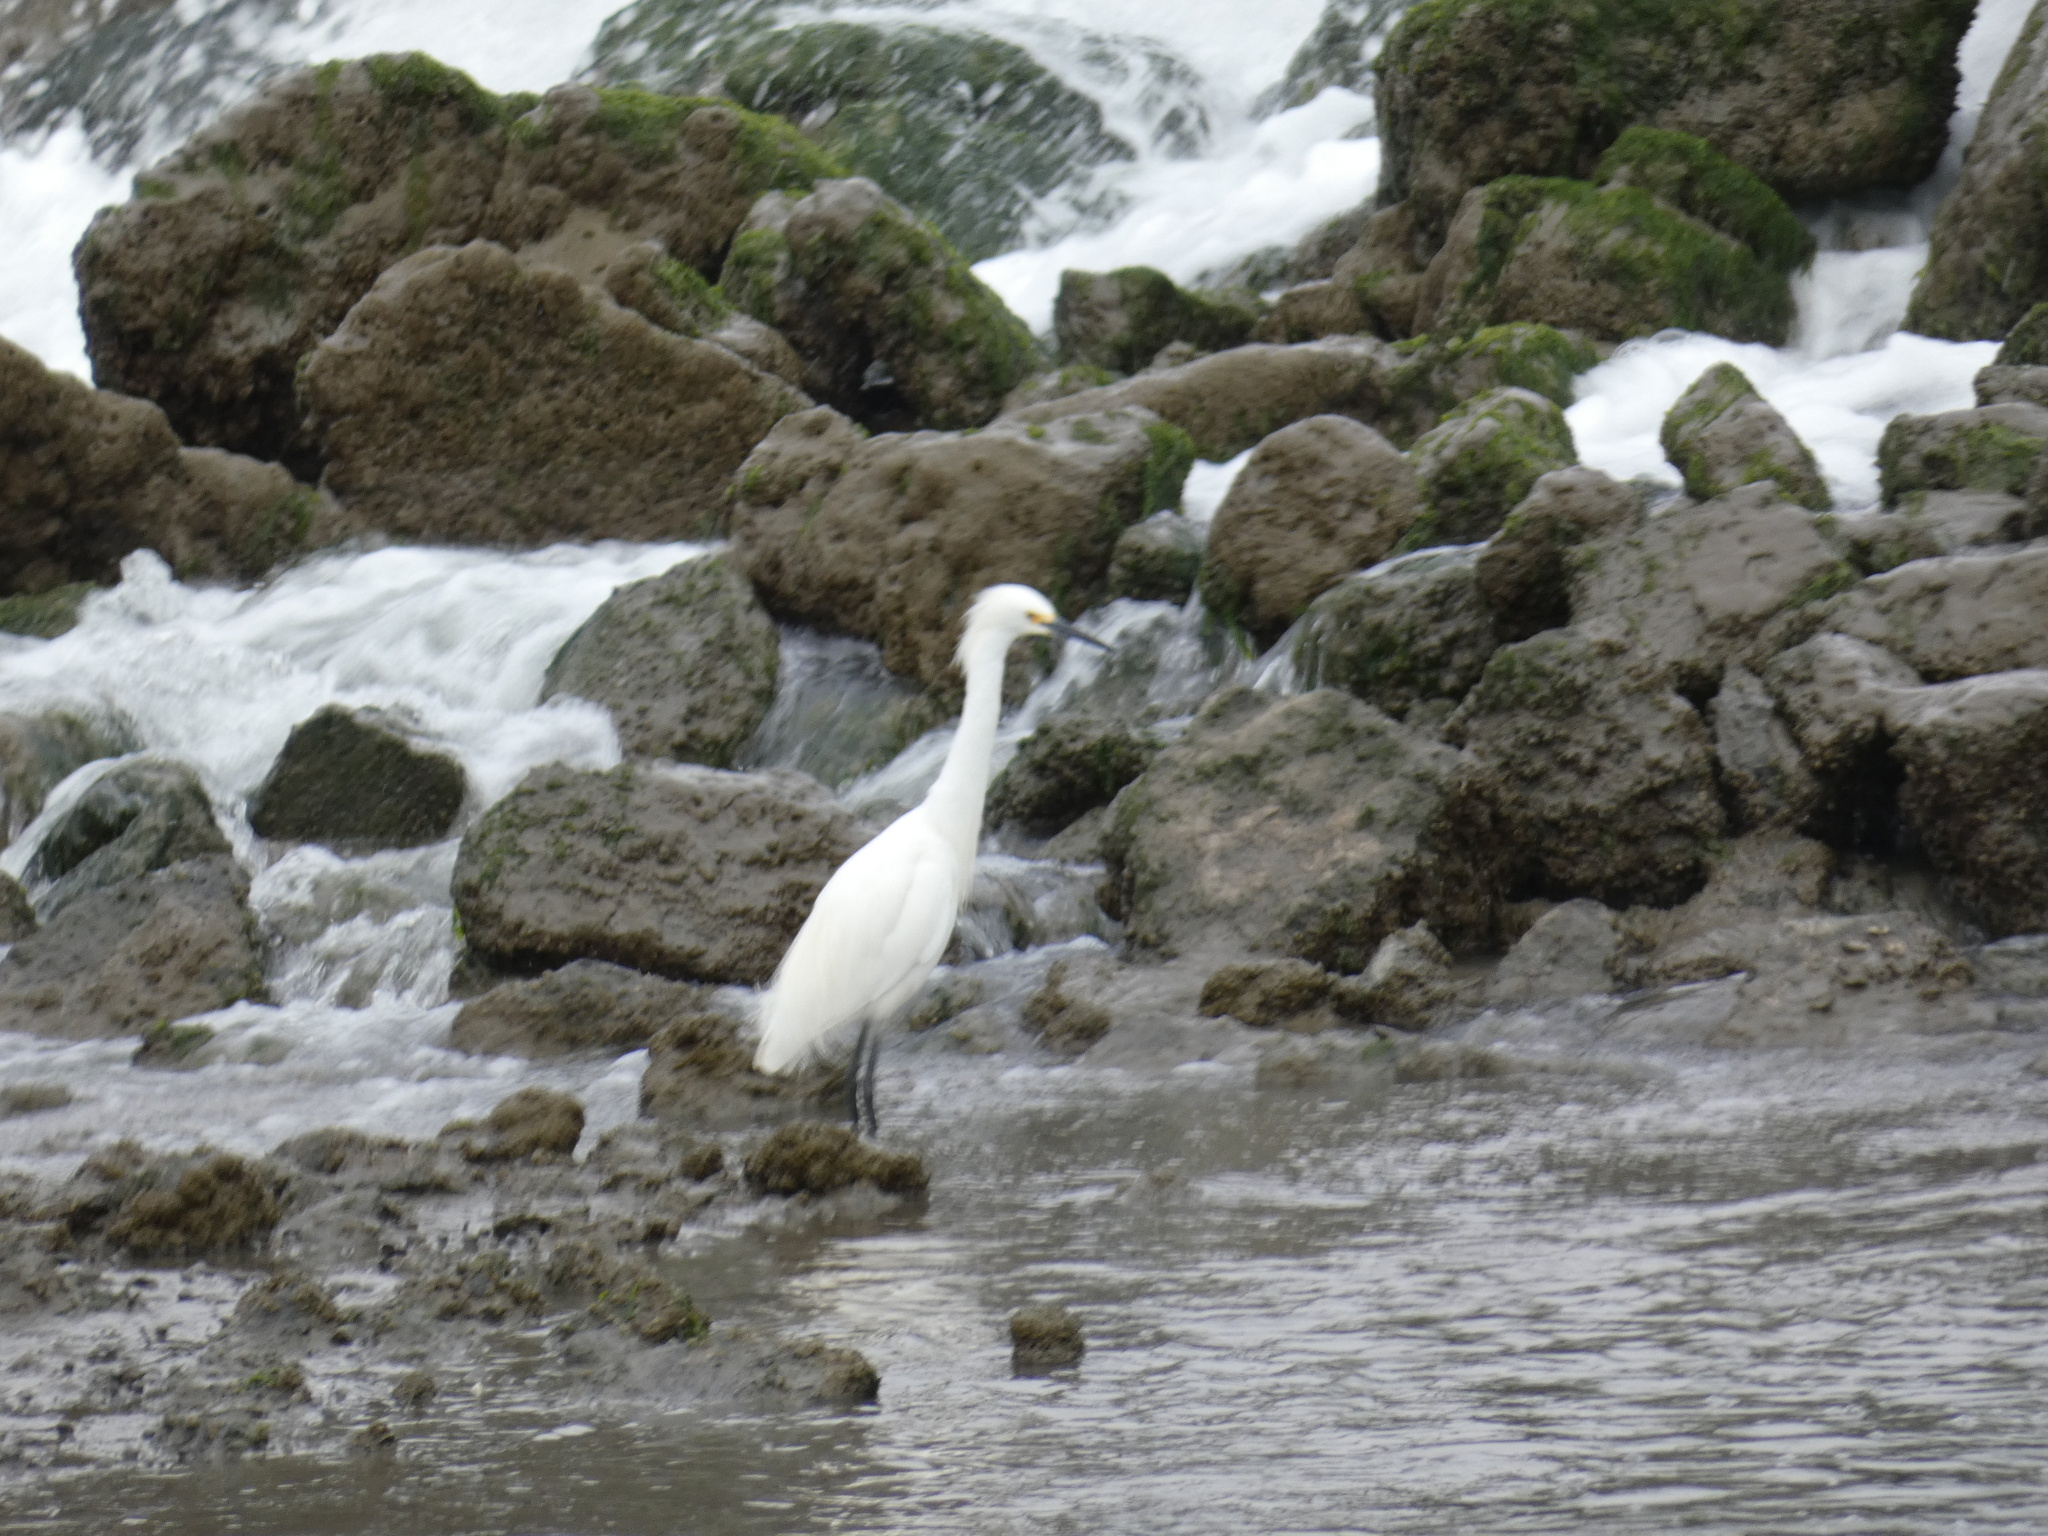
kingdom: Animalia
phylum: Chordata
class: Aves
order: Pelecaniformes
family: Ardeidae
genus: Egretta
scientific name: Egretta thula
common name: Snowy egret
